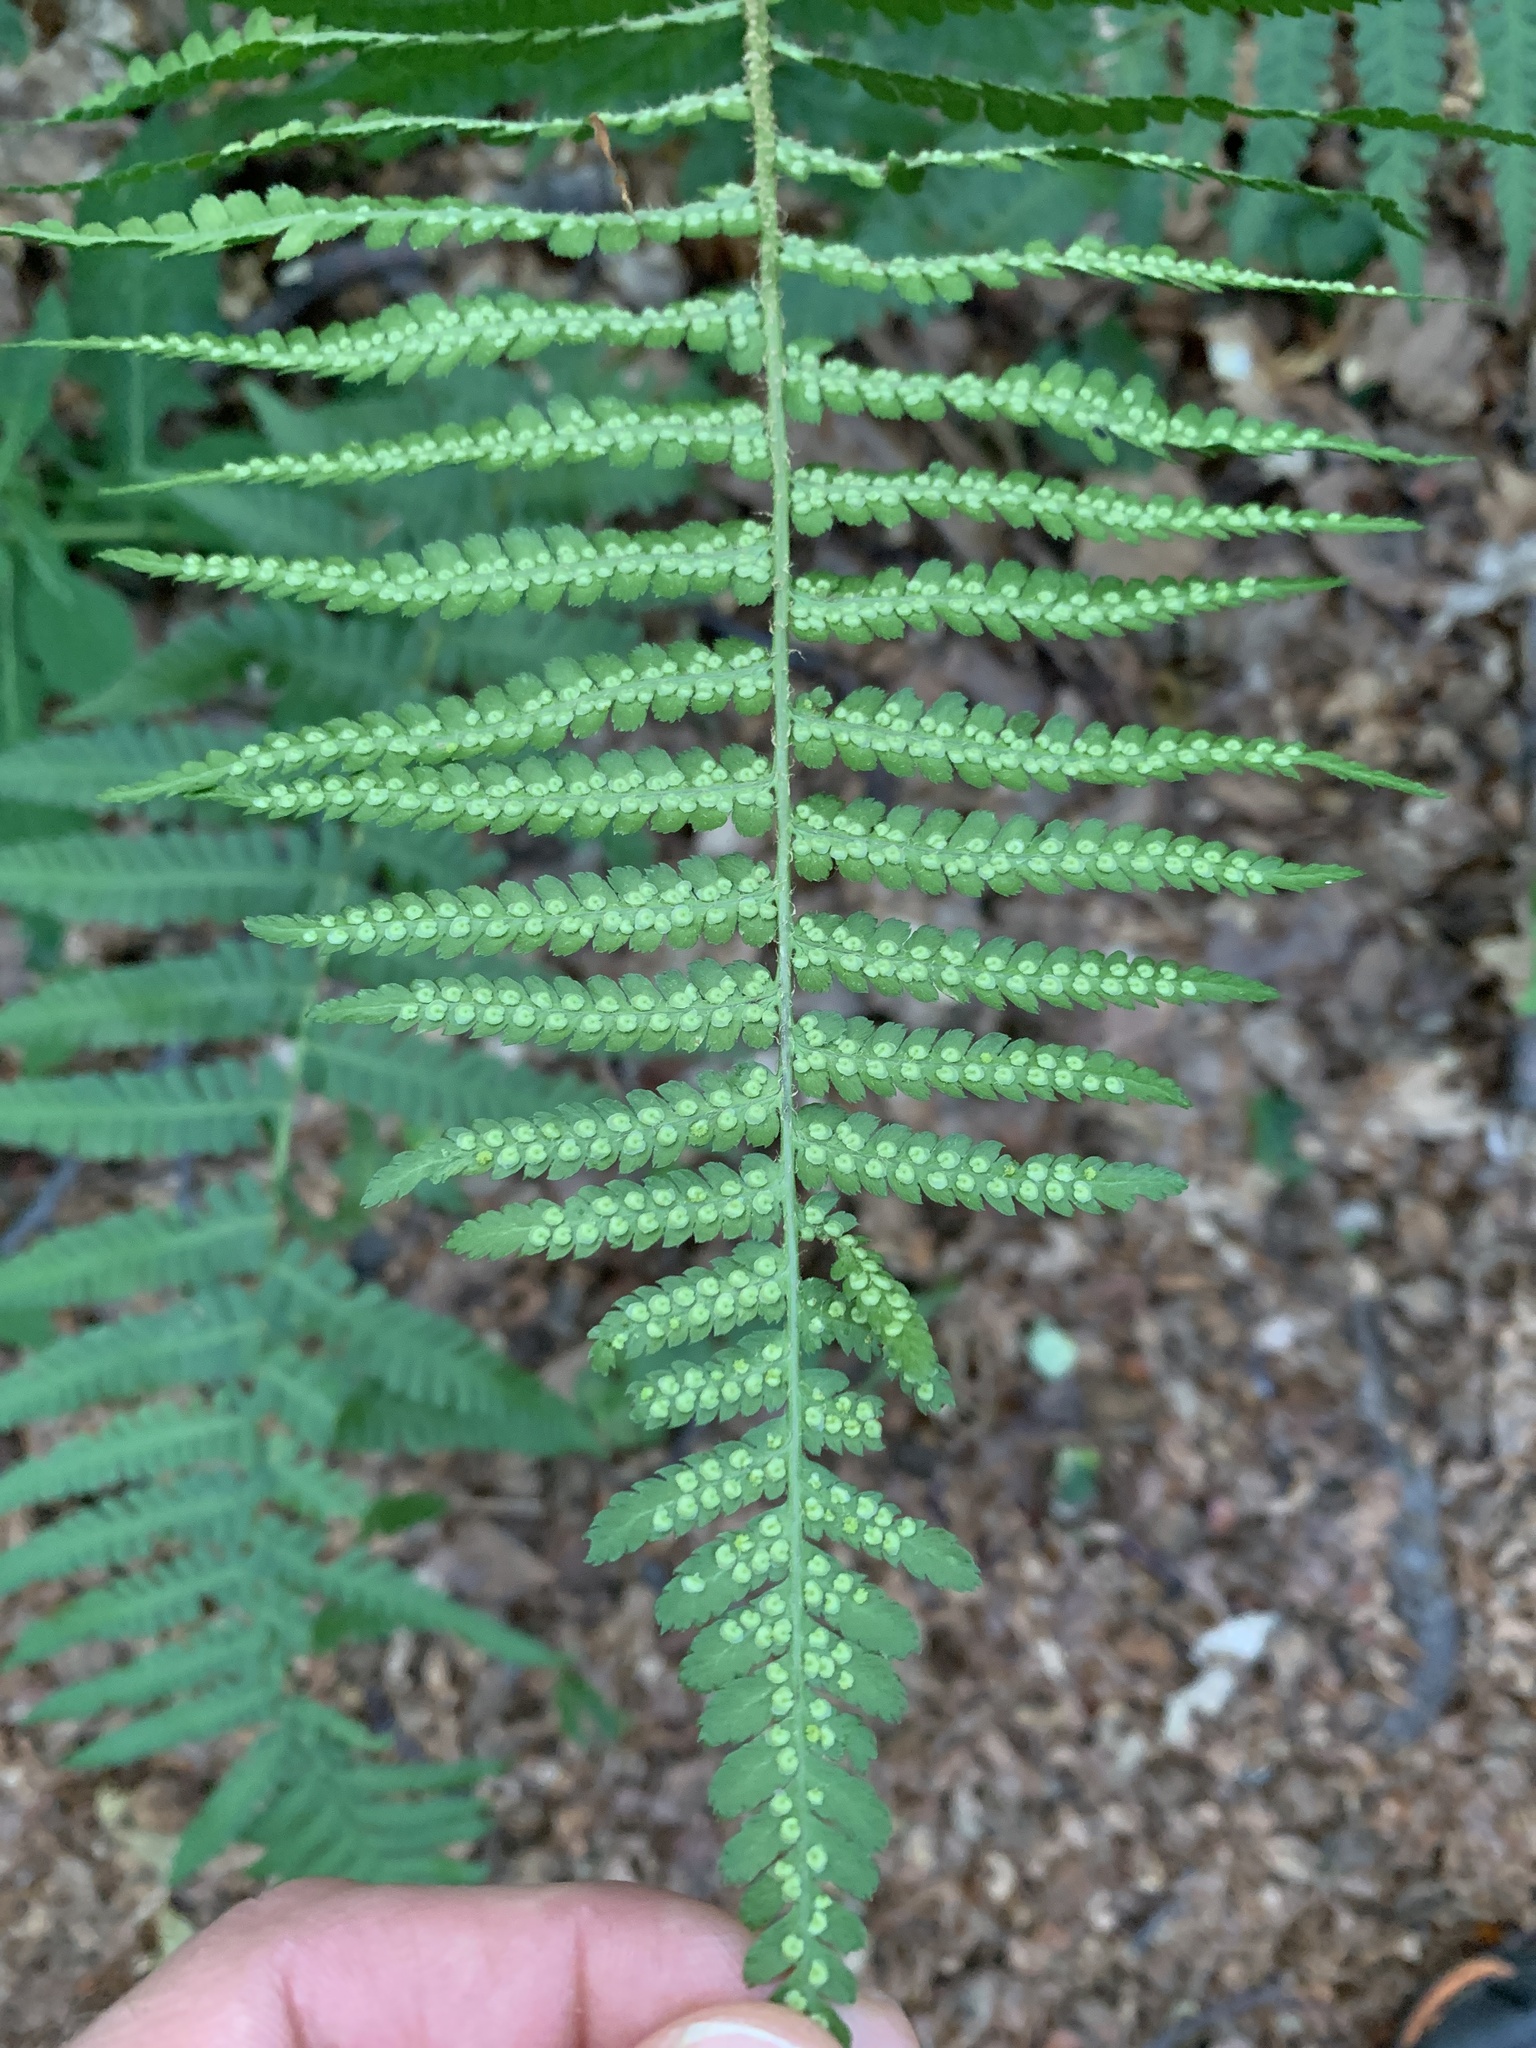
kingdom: Plantae
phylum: Tracheophyta
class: Polypodiopsida
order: Polypodiales
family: Dryopteridaceae
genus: Dryopteris
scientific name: Dryopteris filix-mas
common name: Male fern
